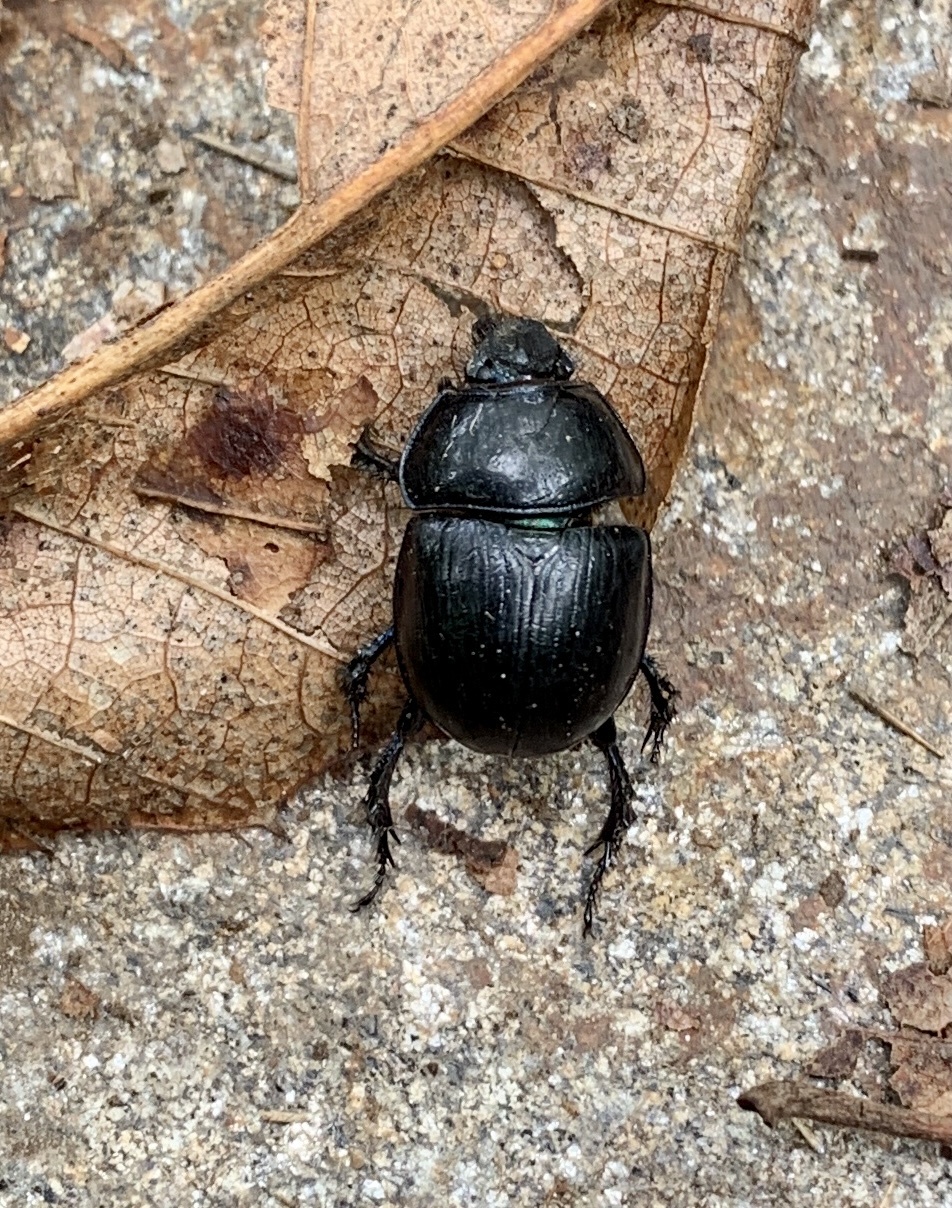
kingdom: Animalia
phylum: Arthropoda
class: Insecta
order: Coleoptera
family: Geotrupidae
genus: Anoplotrupes
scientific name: Anoplotrupes stercorosus
